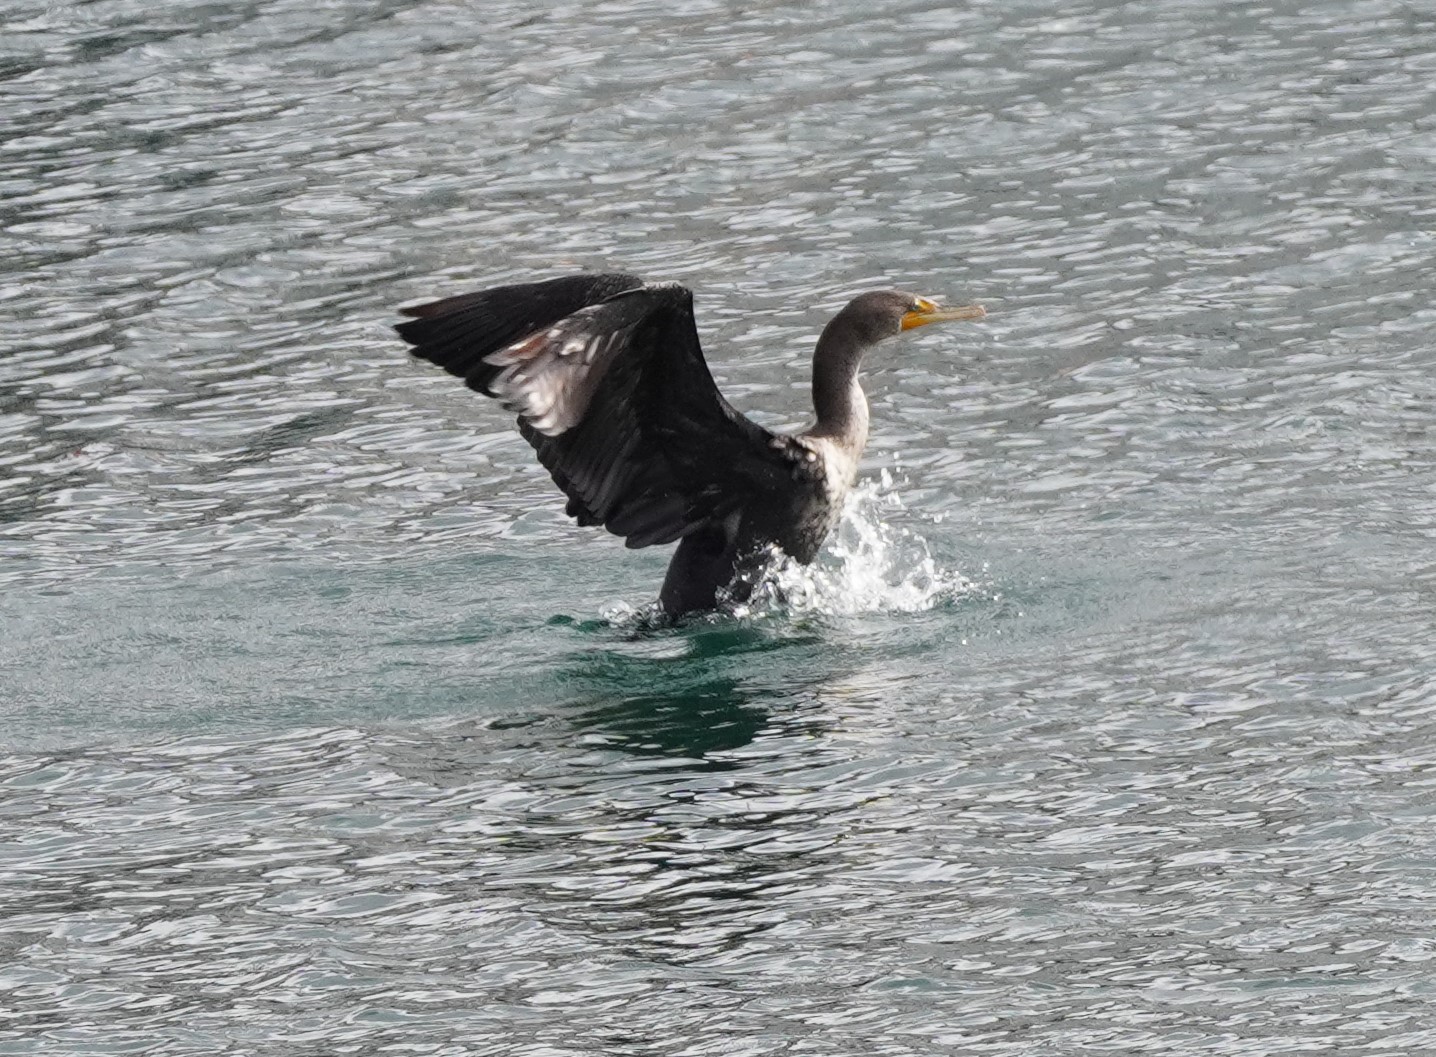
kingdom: Animalia
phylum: Chordata
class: Aves
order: Suliformes
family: Phalacrocoracidae
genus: Phalacrocorax
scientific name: Phalacrocorax auritus
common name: Double-crested cormorant
